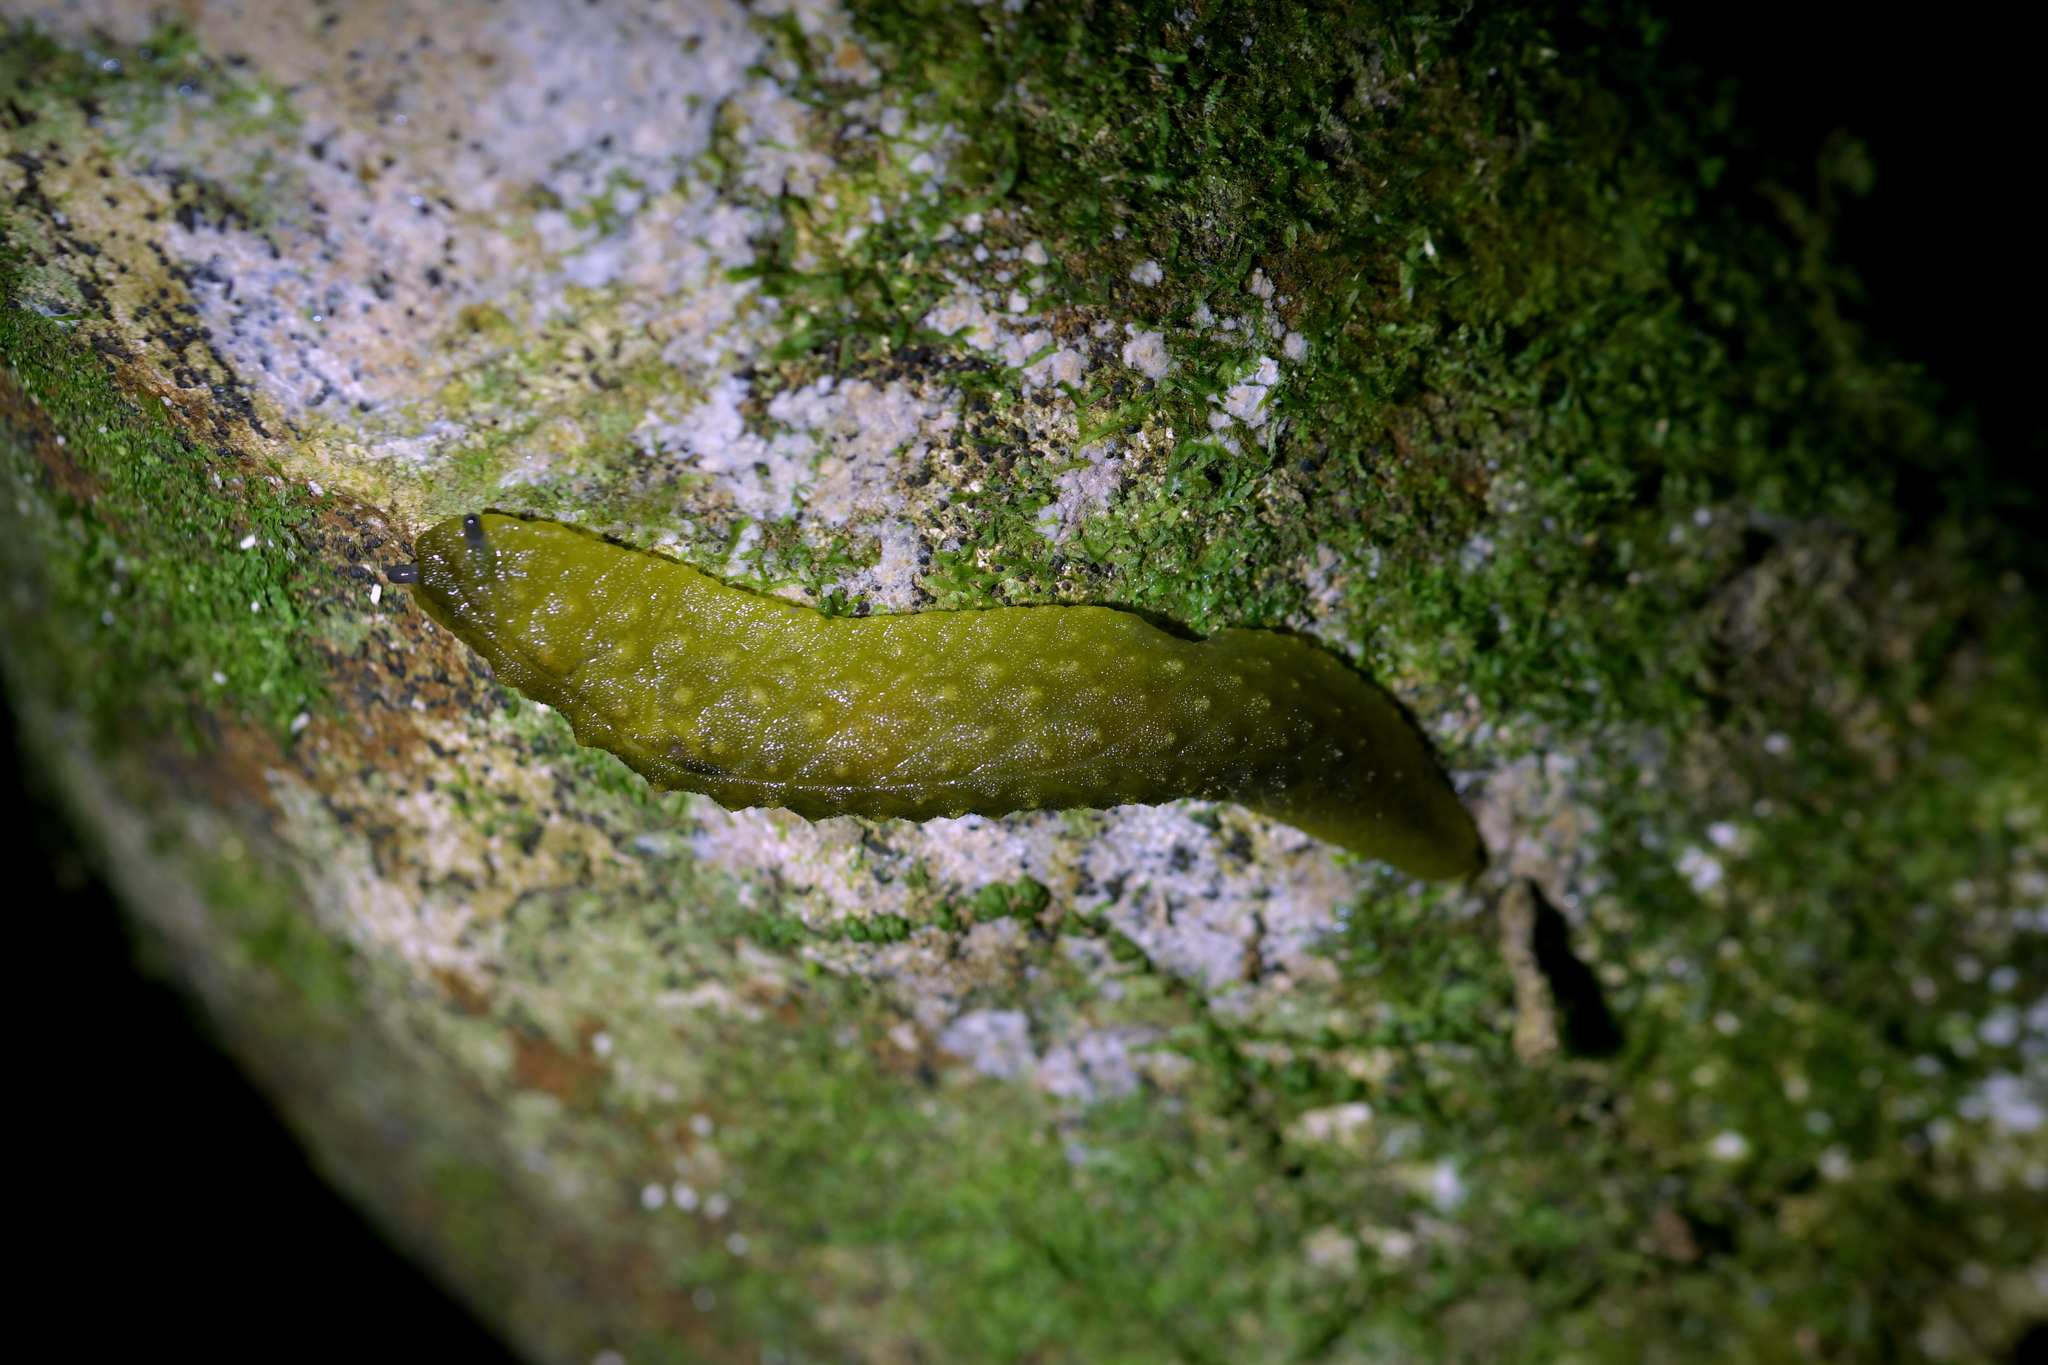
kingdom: Animalia
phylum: Mollusca
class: Gastropoda
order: Stylommatophora
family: Athoracophoridae
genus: Athoracophorus
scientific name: Athoracophorus papillatus
